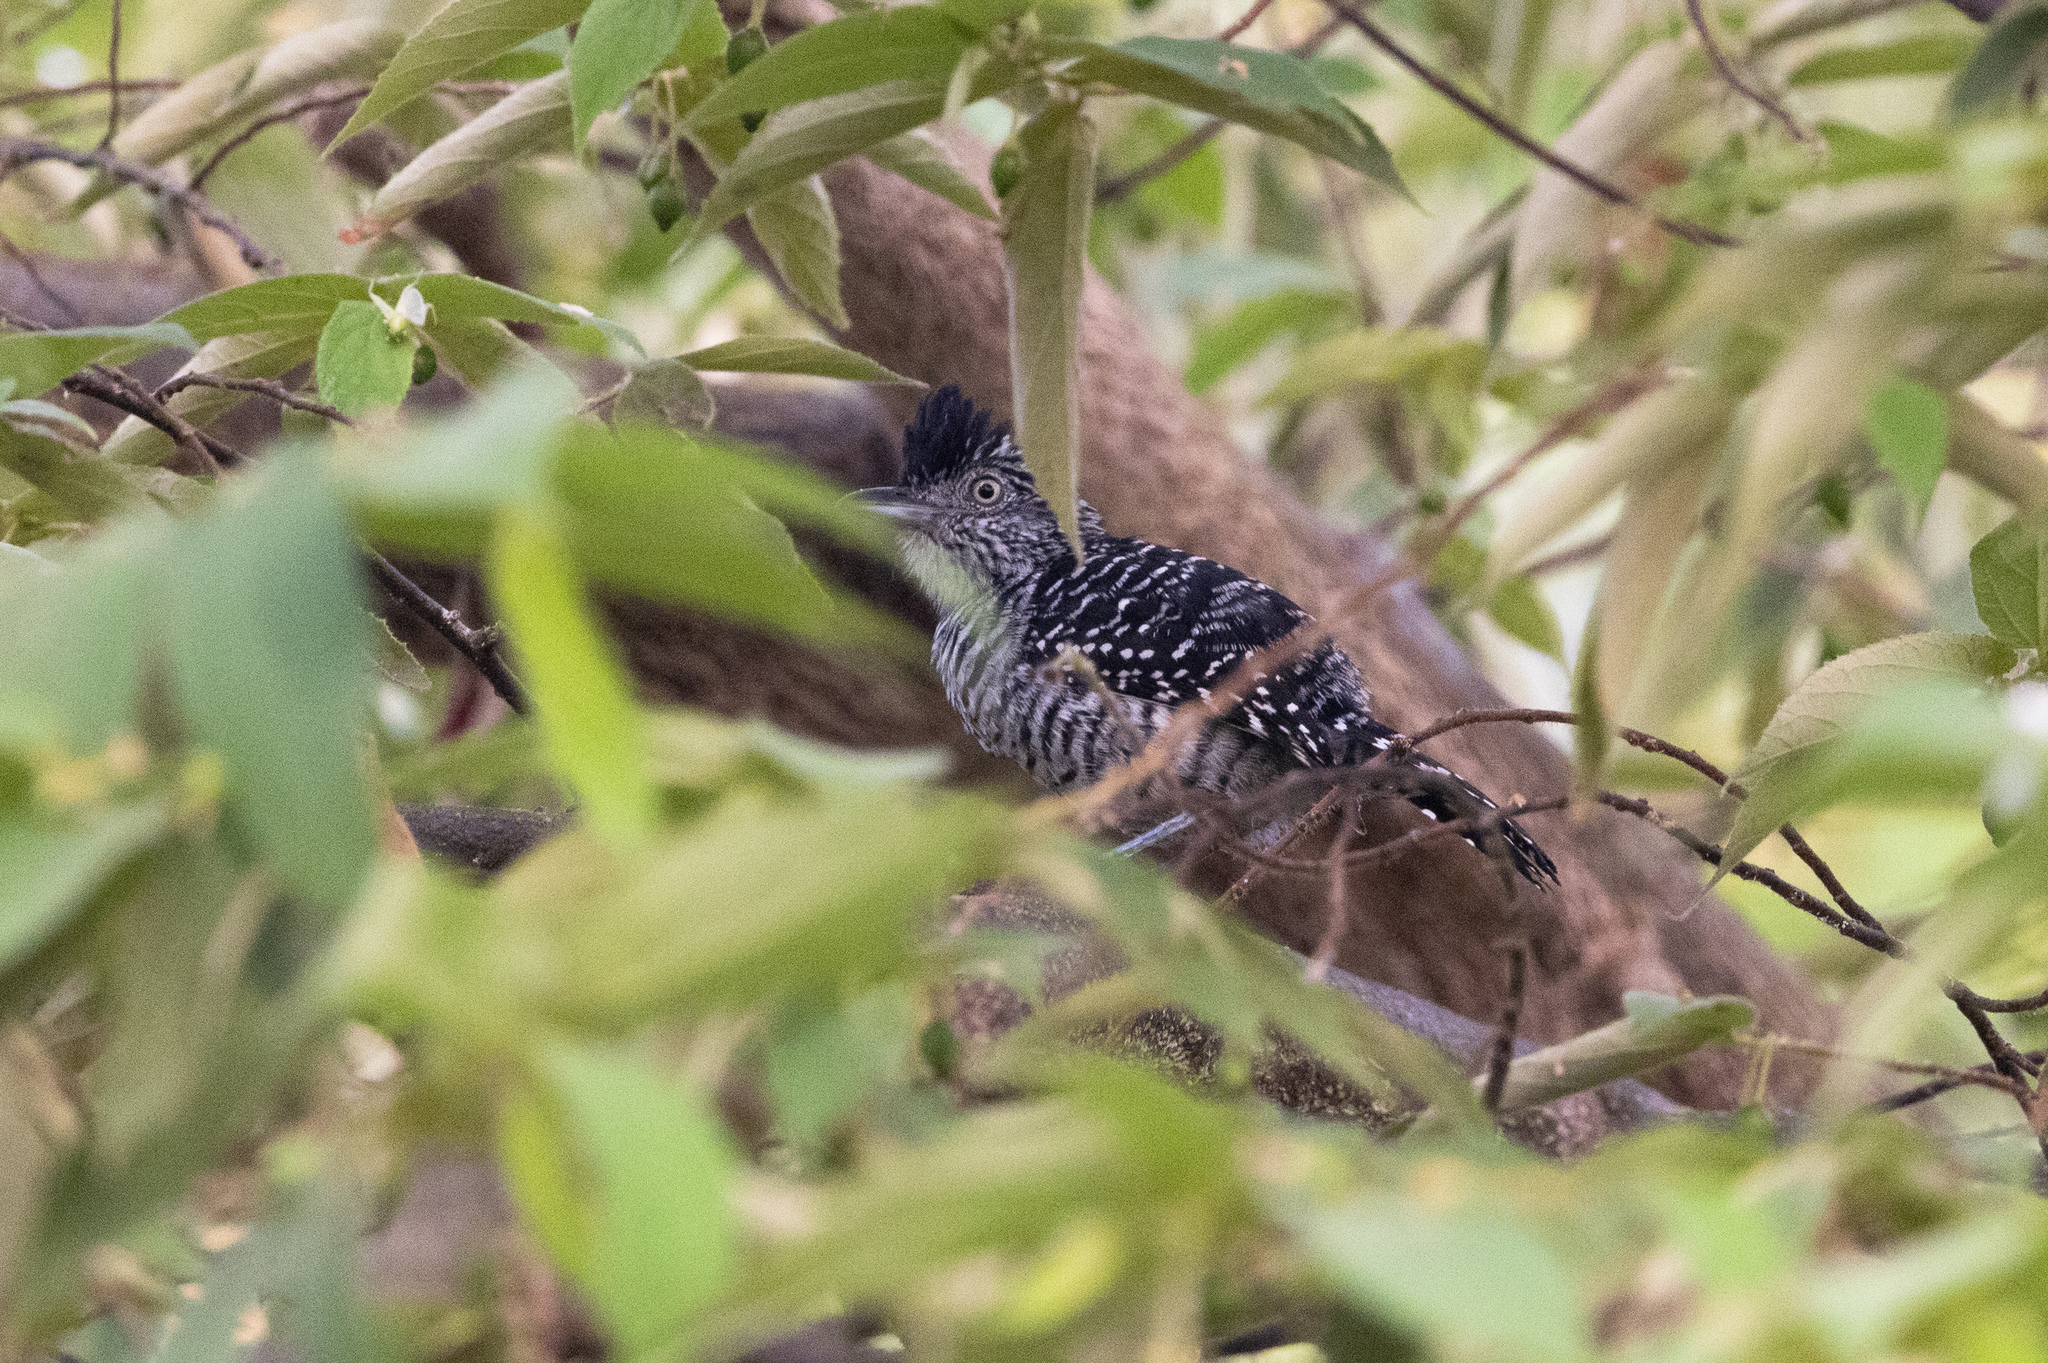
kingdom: Animalia
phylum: Chordata
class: Aves
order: Passeriformes
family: Thamnophilidae
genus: Thamnophilus
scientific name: Thamnophilus doliatus
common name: Barred antshrike
